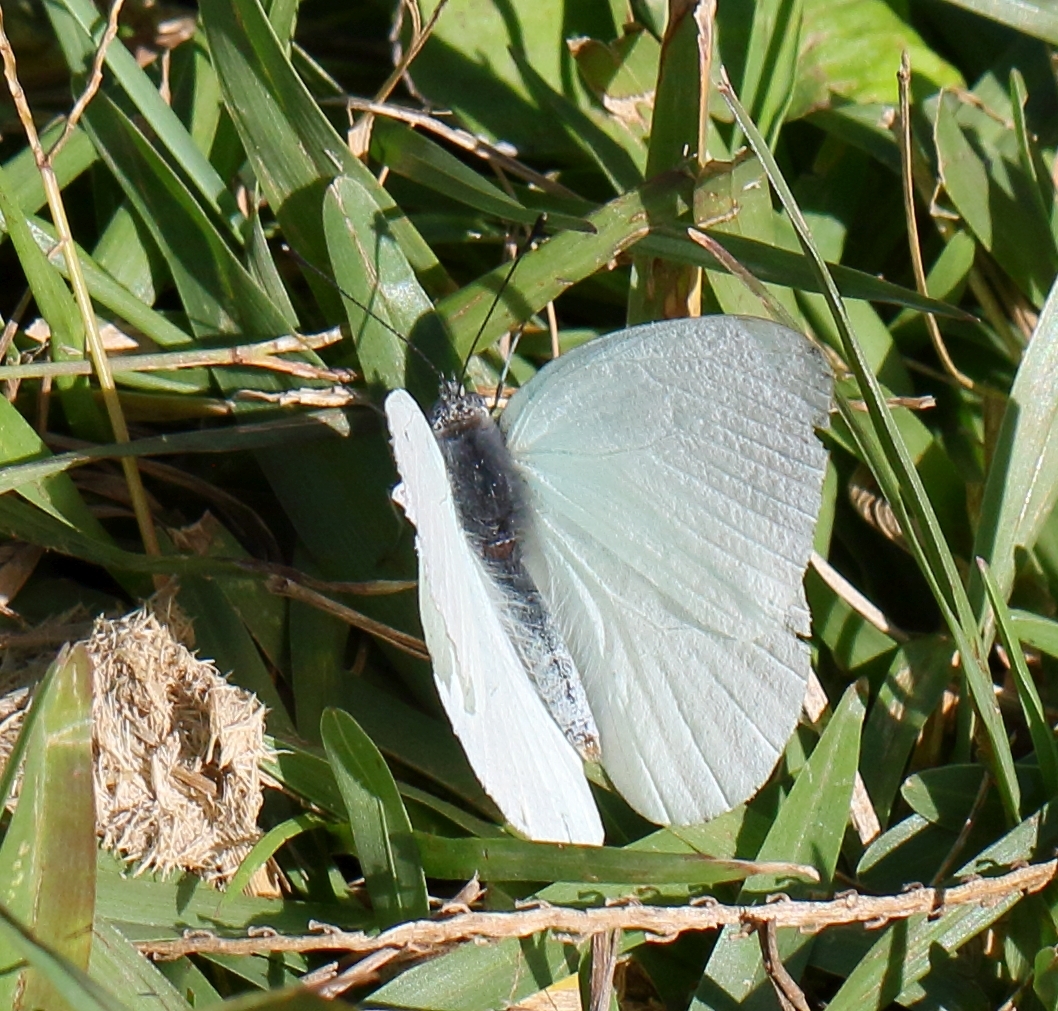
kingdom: Animalia
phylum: Arthropoda
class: Insecta
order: Lepidoptera
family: Pieridae
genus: Dixeia
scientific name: Dixeia pigea
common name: Ant-heap small white
